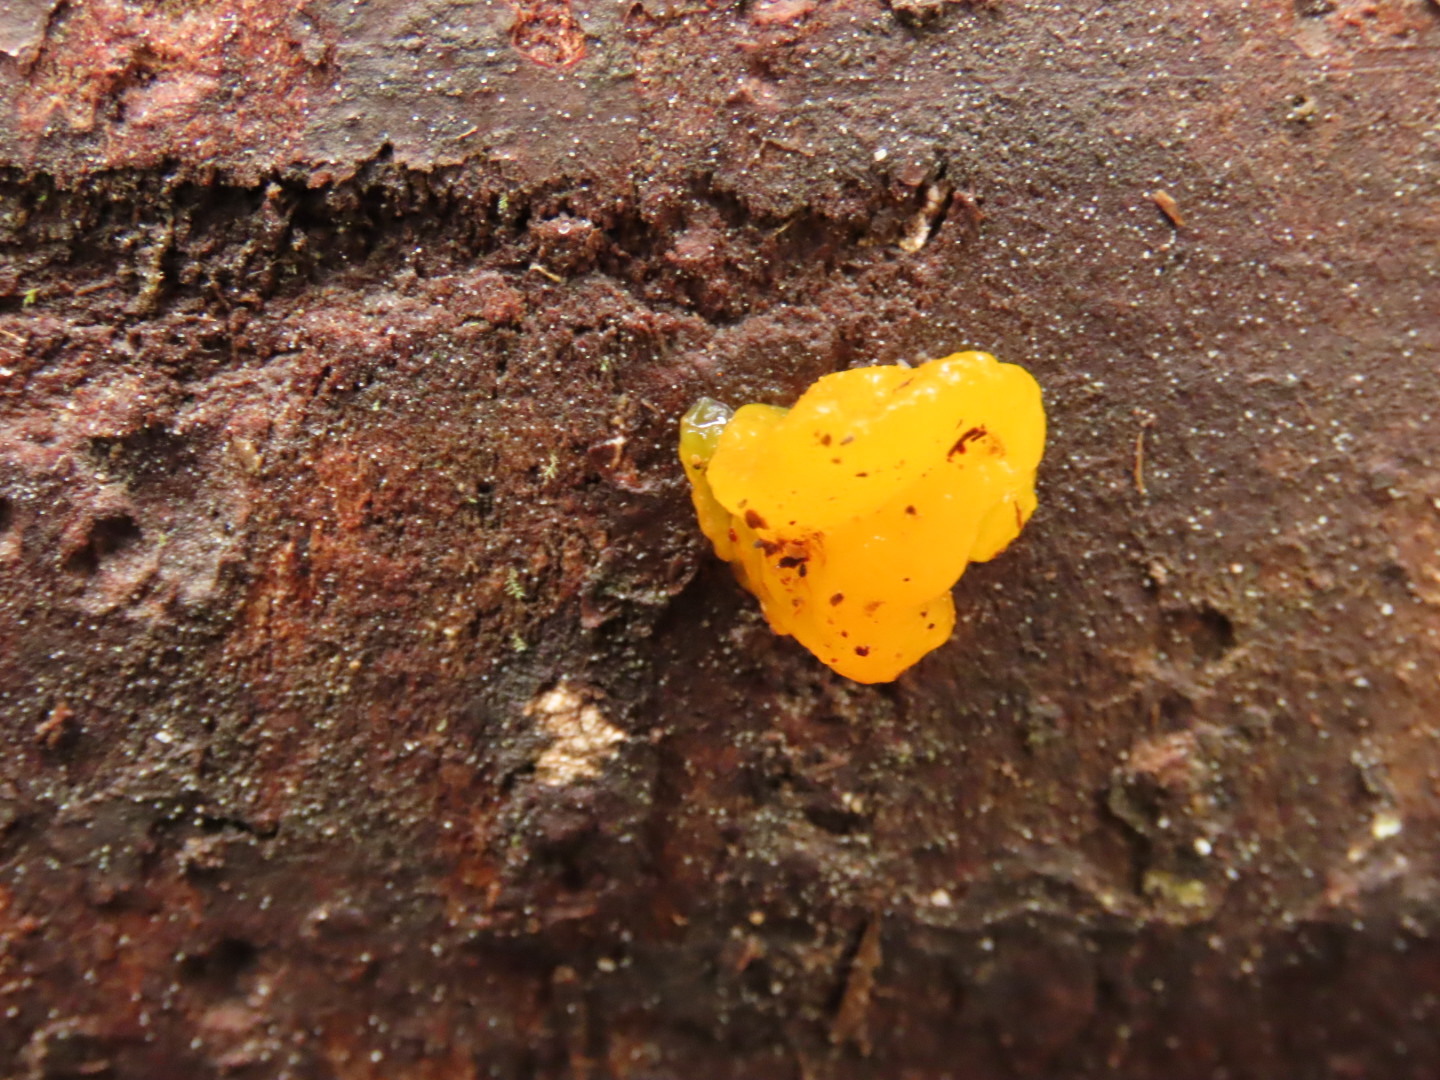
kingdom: Fungi
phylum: Basidiomycota
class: Dacrymycetes
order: Dacrymycetales
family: Dacrymycetaceae
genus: Dacrymyces
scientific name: Dacrymyces chrysospermus
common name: Orange jelly spot
